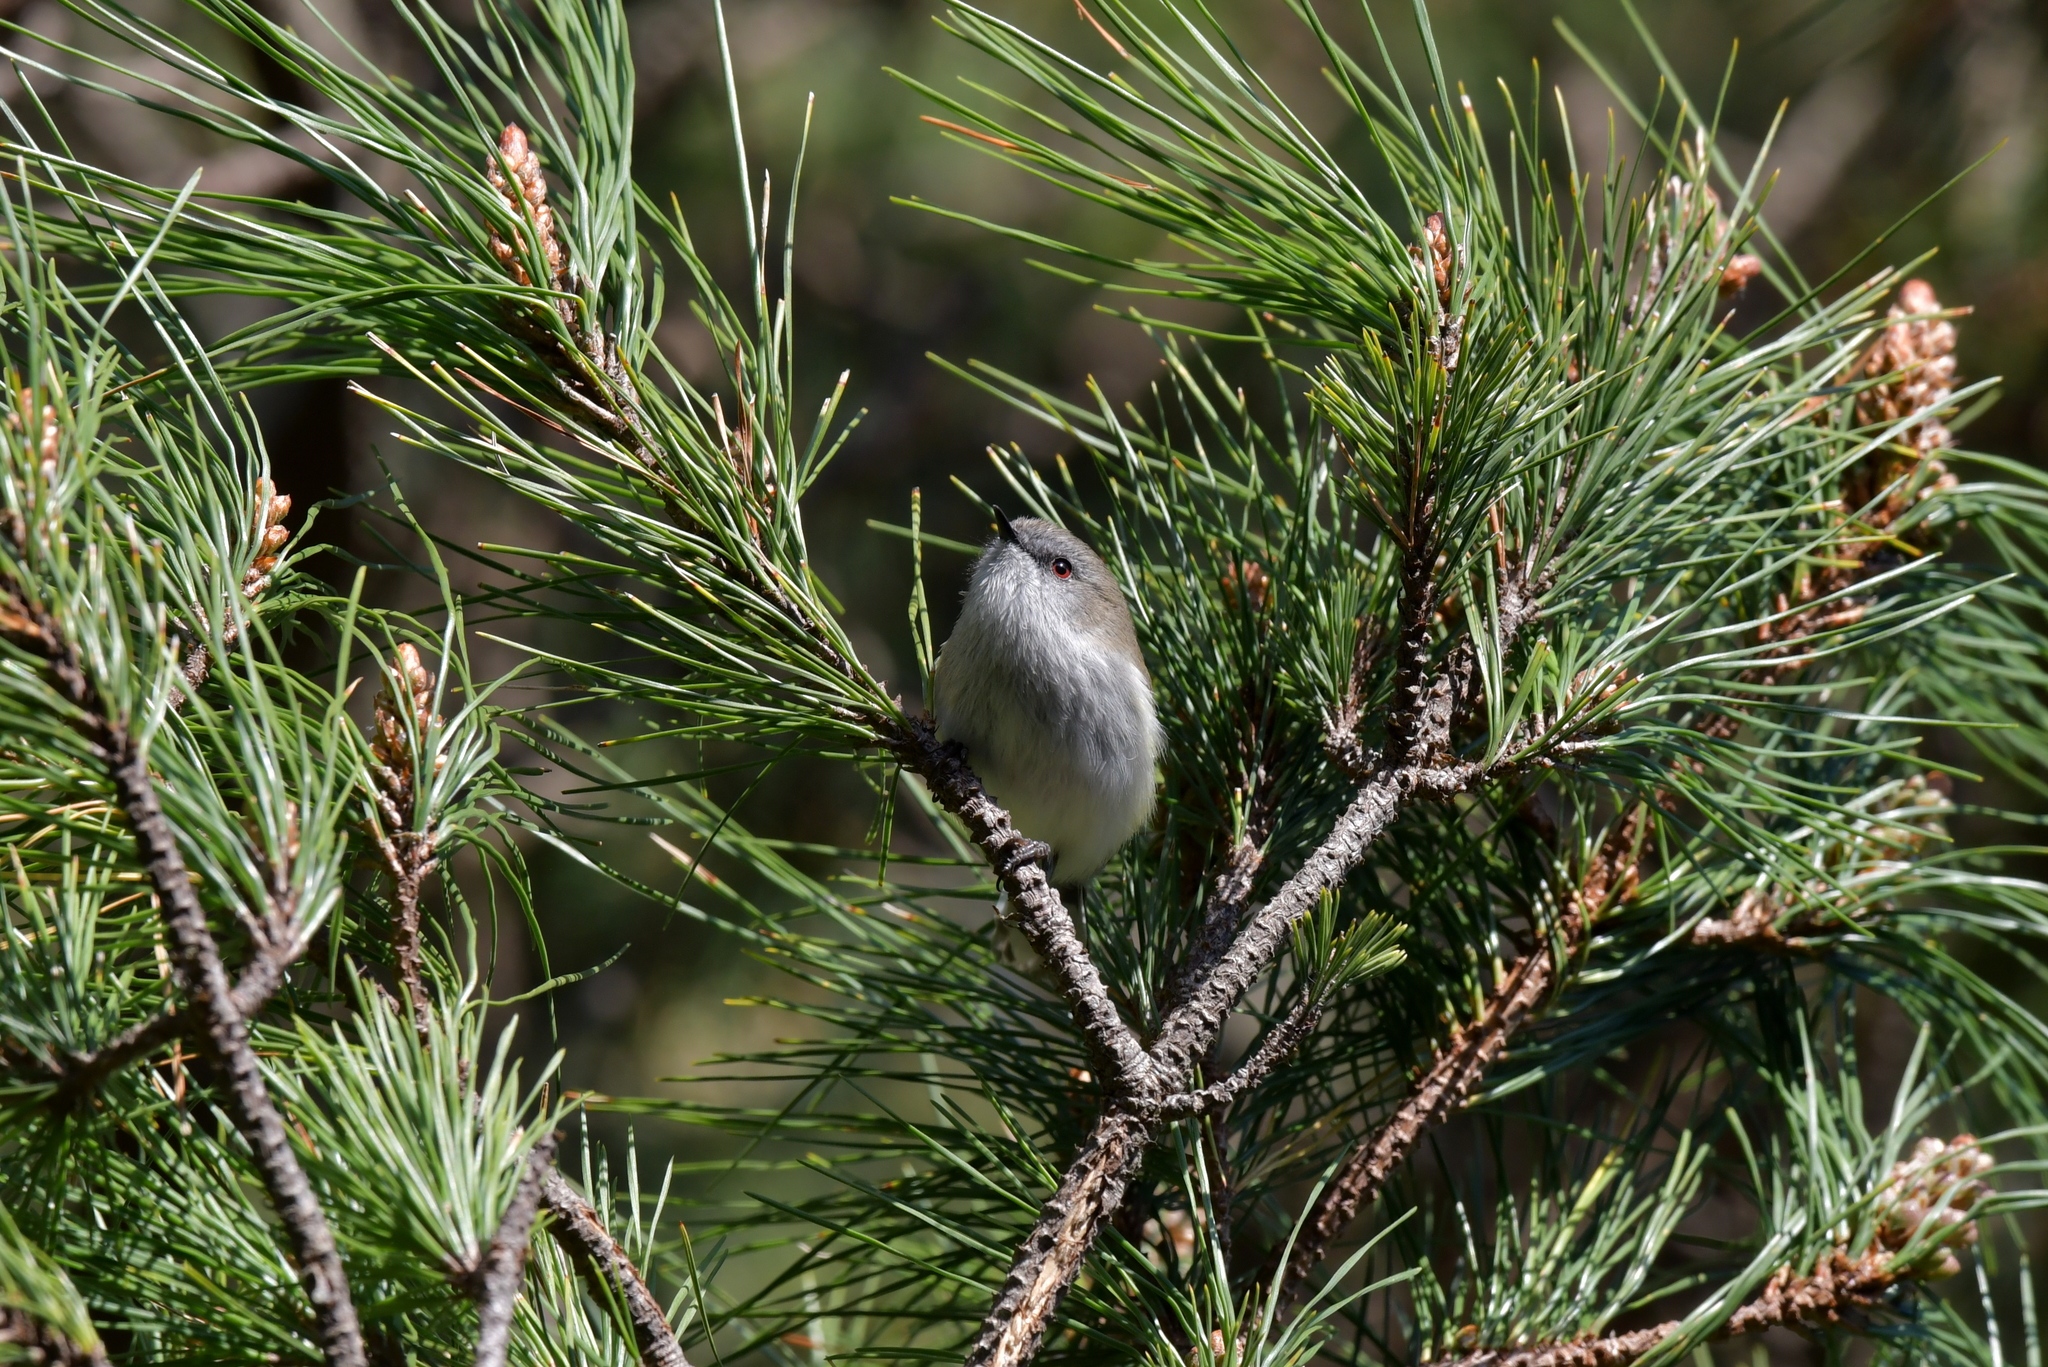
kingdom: Animalia
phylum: Chordata
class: Aves
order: Passeriformes
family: Acanthizidae
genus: Gerygone
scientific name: Gerygone igata
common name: Grey gerygone
